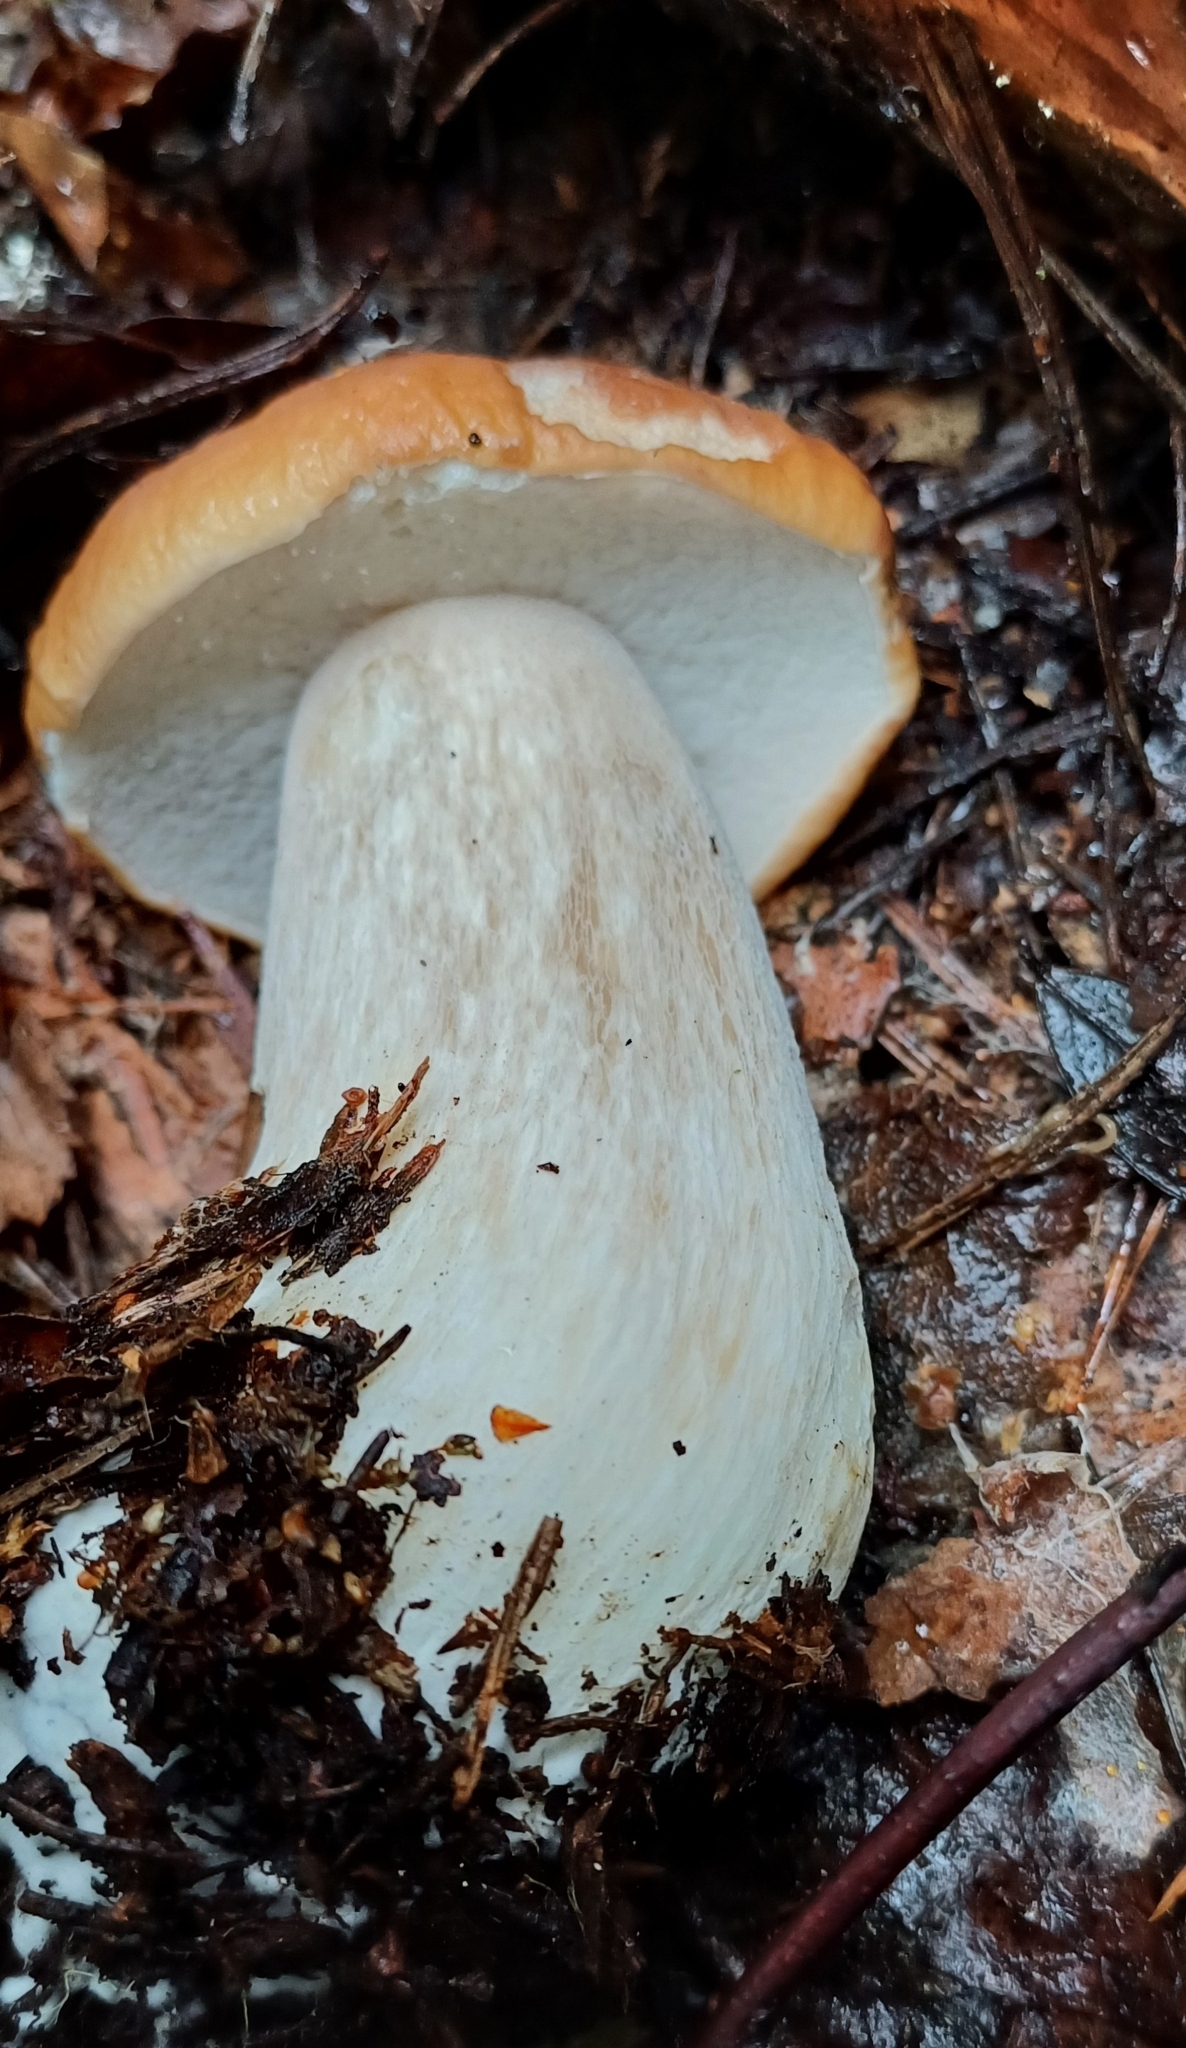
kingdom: Fungi
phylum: Basidiomycota
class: Agaricomycetes
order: Boletales
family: Boletaceae
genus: Boletus
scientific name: Boletus edulis
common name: Cep
